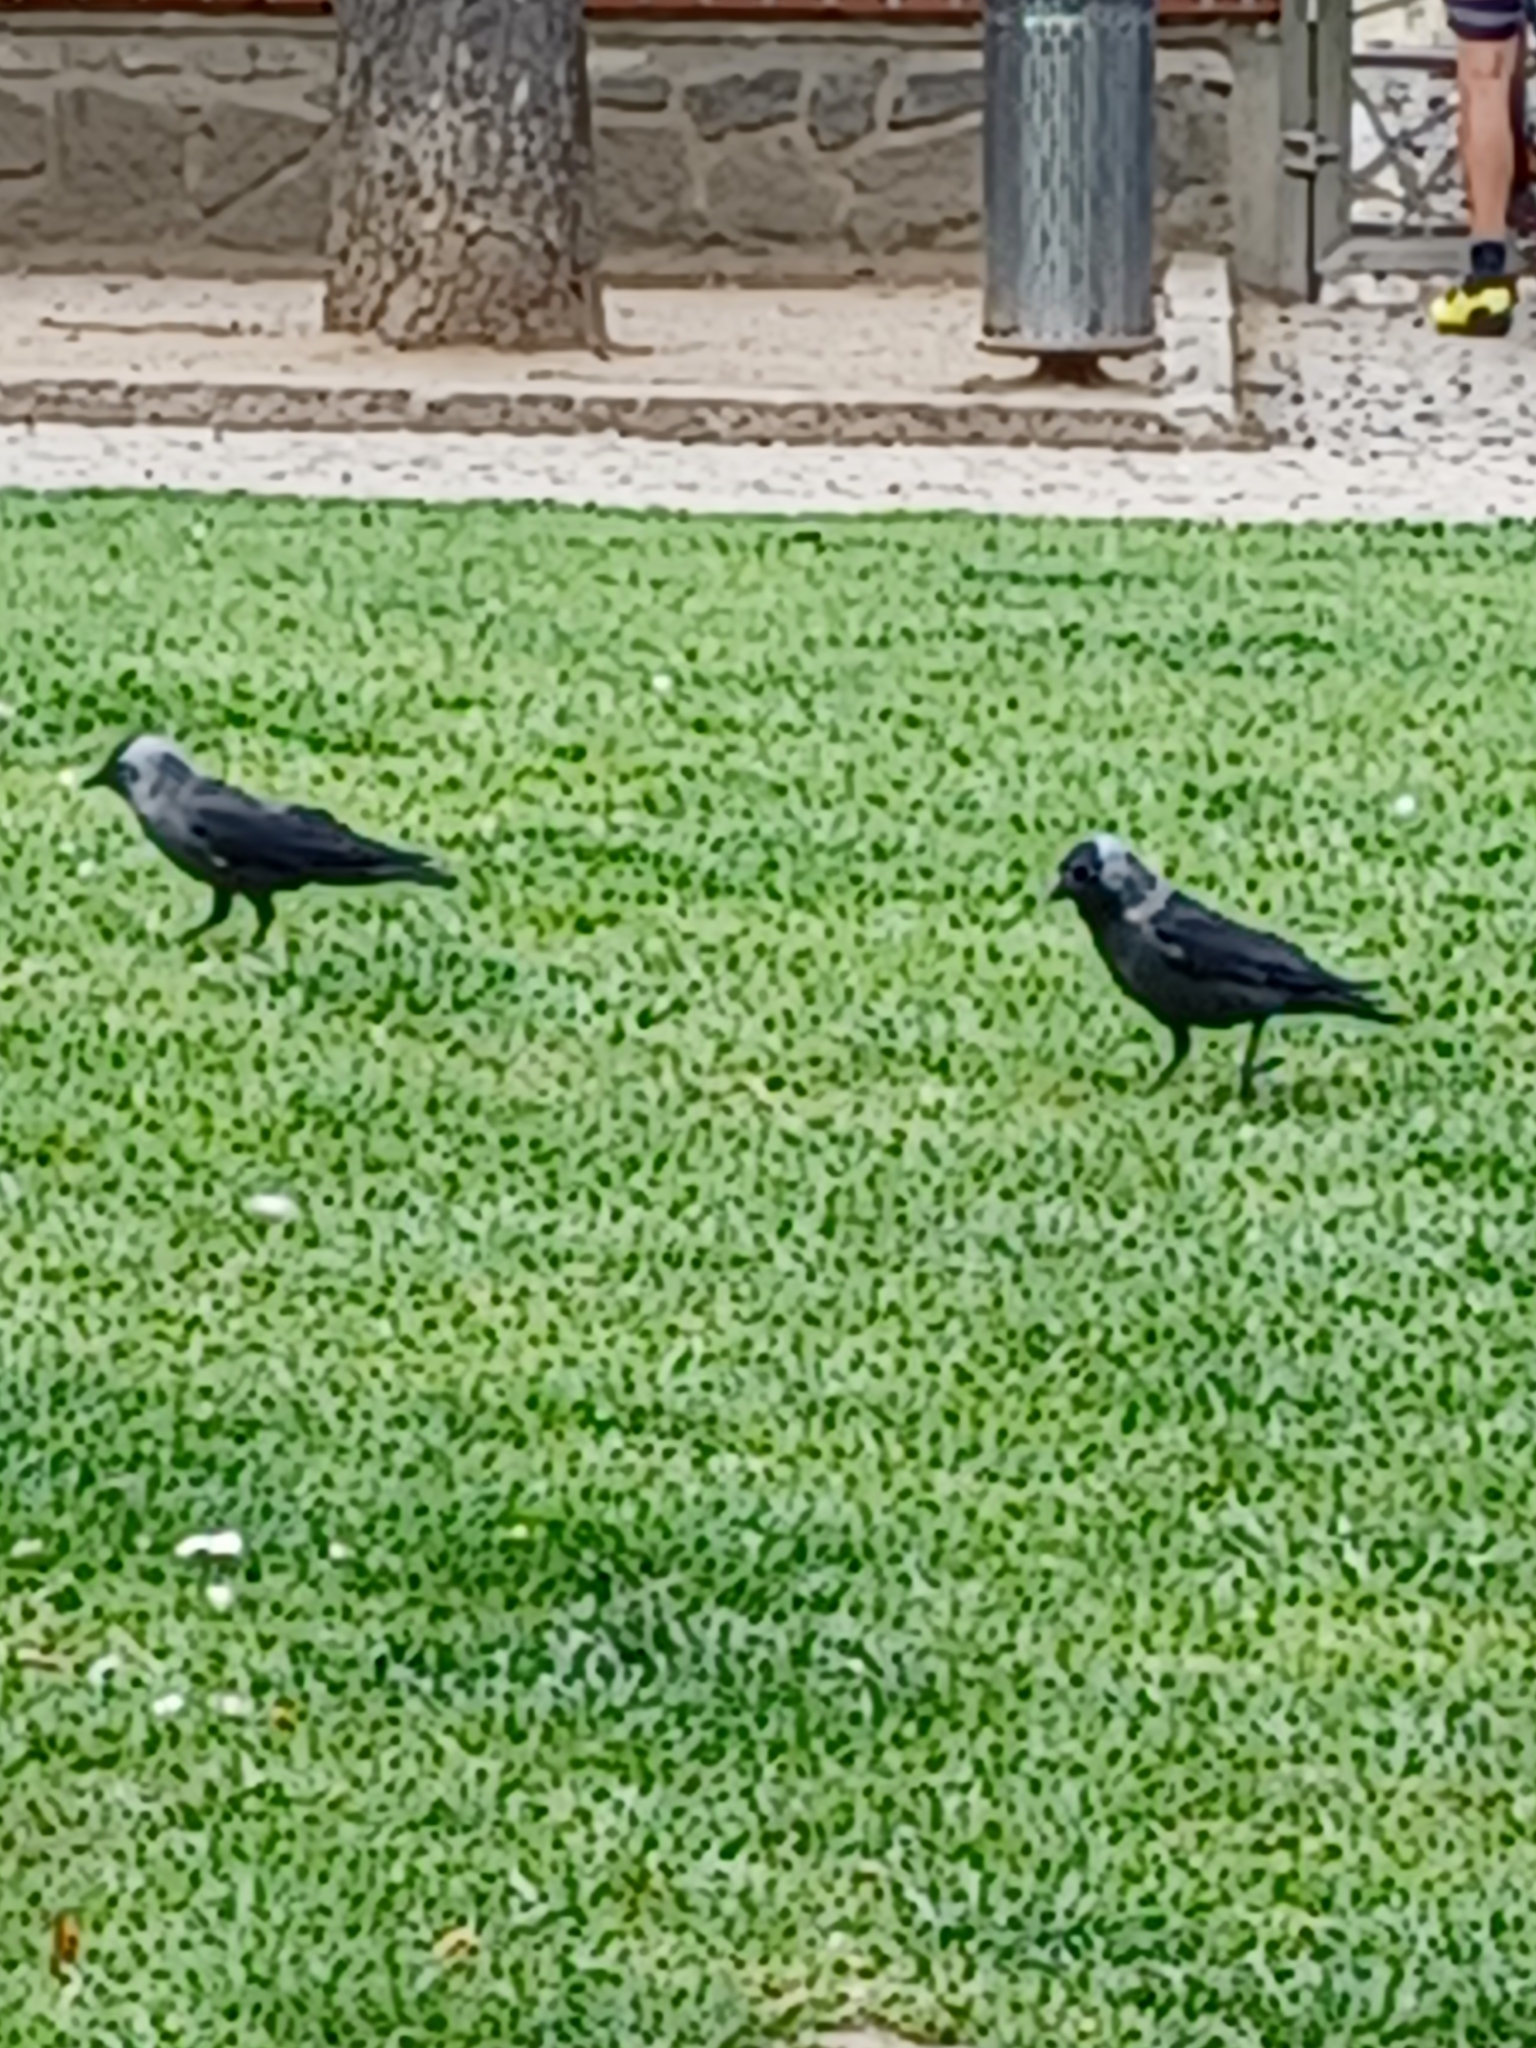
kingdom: Animalia
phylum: Chordata
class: Aves
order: Passeriformes
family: Corvidae
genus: Coloeus
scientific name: Coloeus monedula
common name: Western jackdaw
